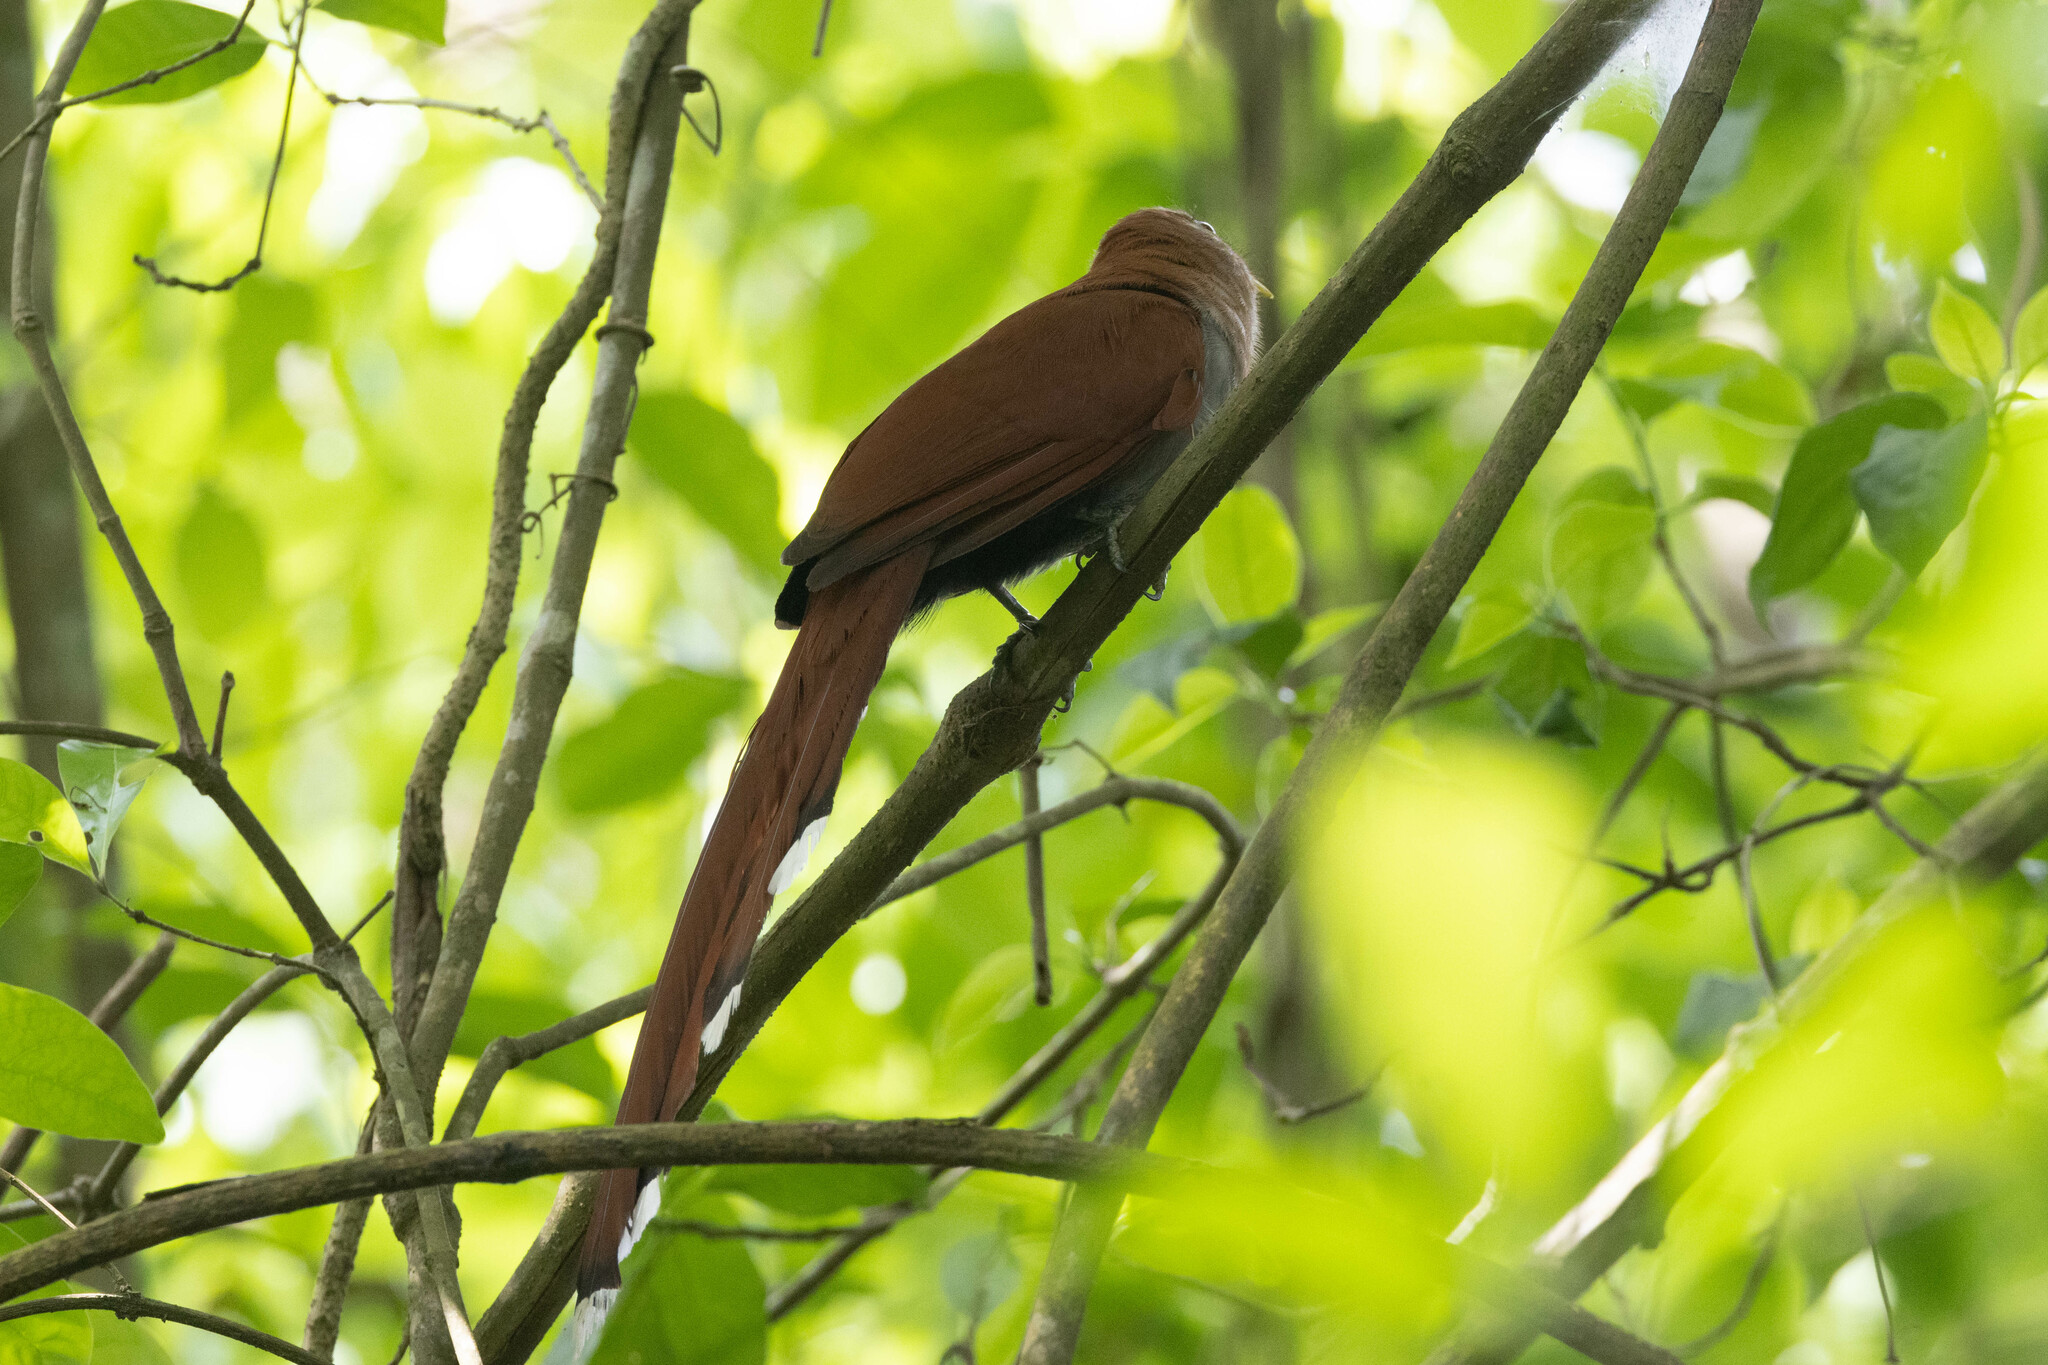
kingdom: Animalia
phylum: Chordata
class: Aves
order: Cuculiformes
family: Cuculidae
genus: Piaya
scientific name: Piaya cayana
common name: Squirrel cuckoo
